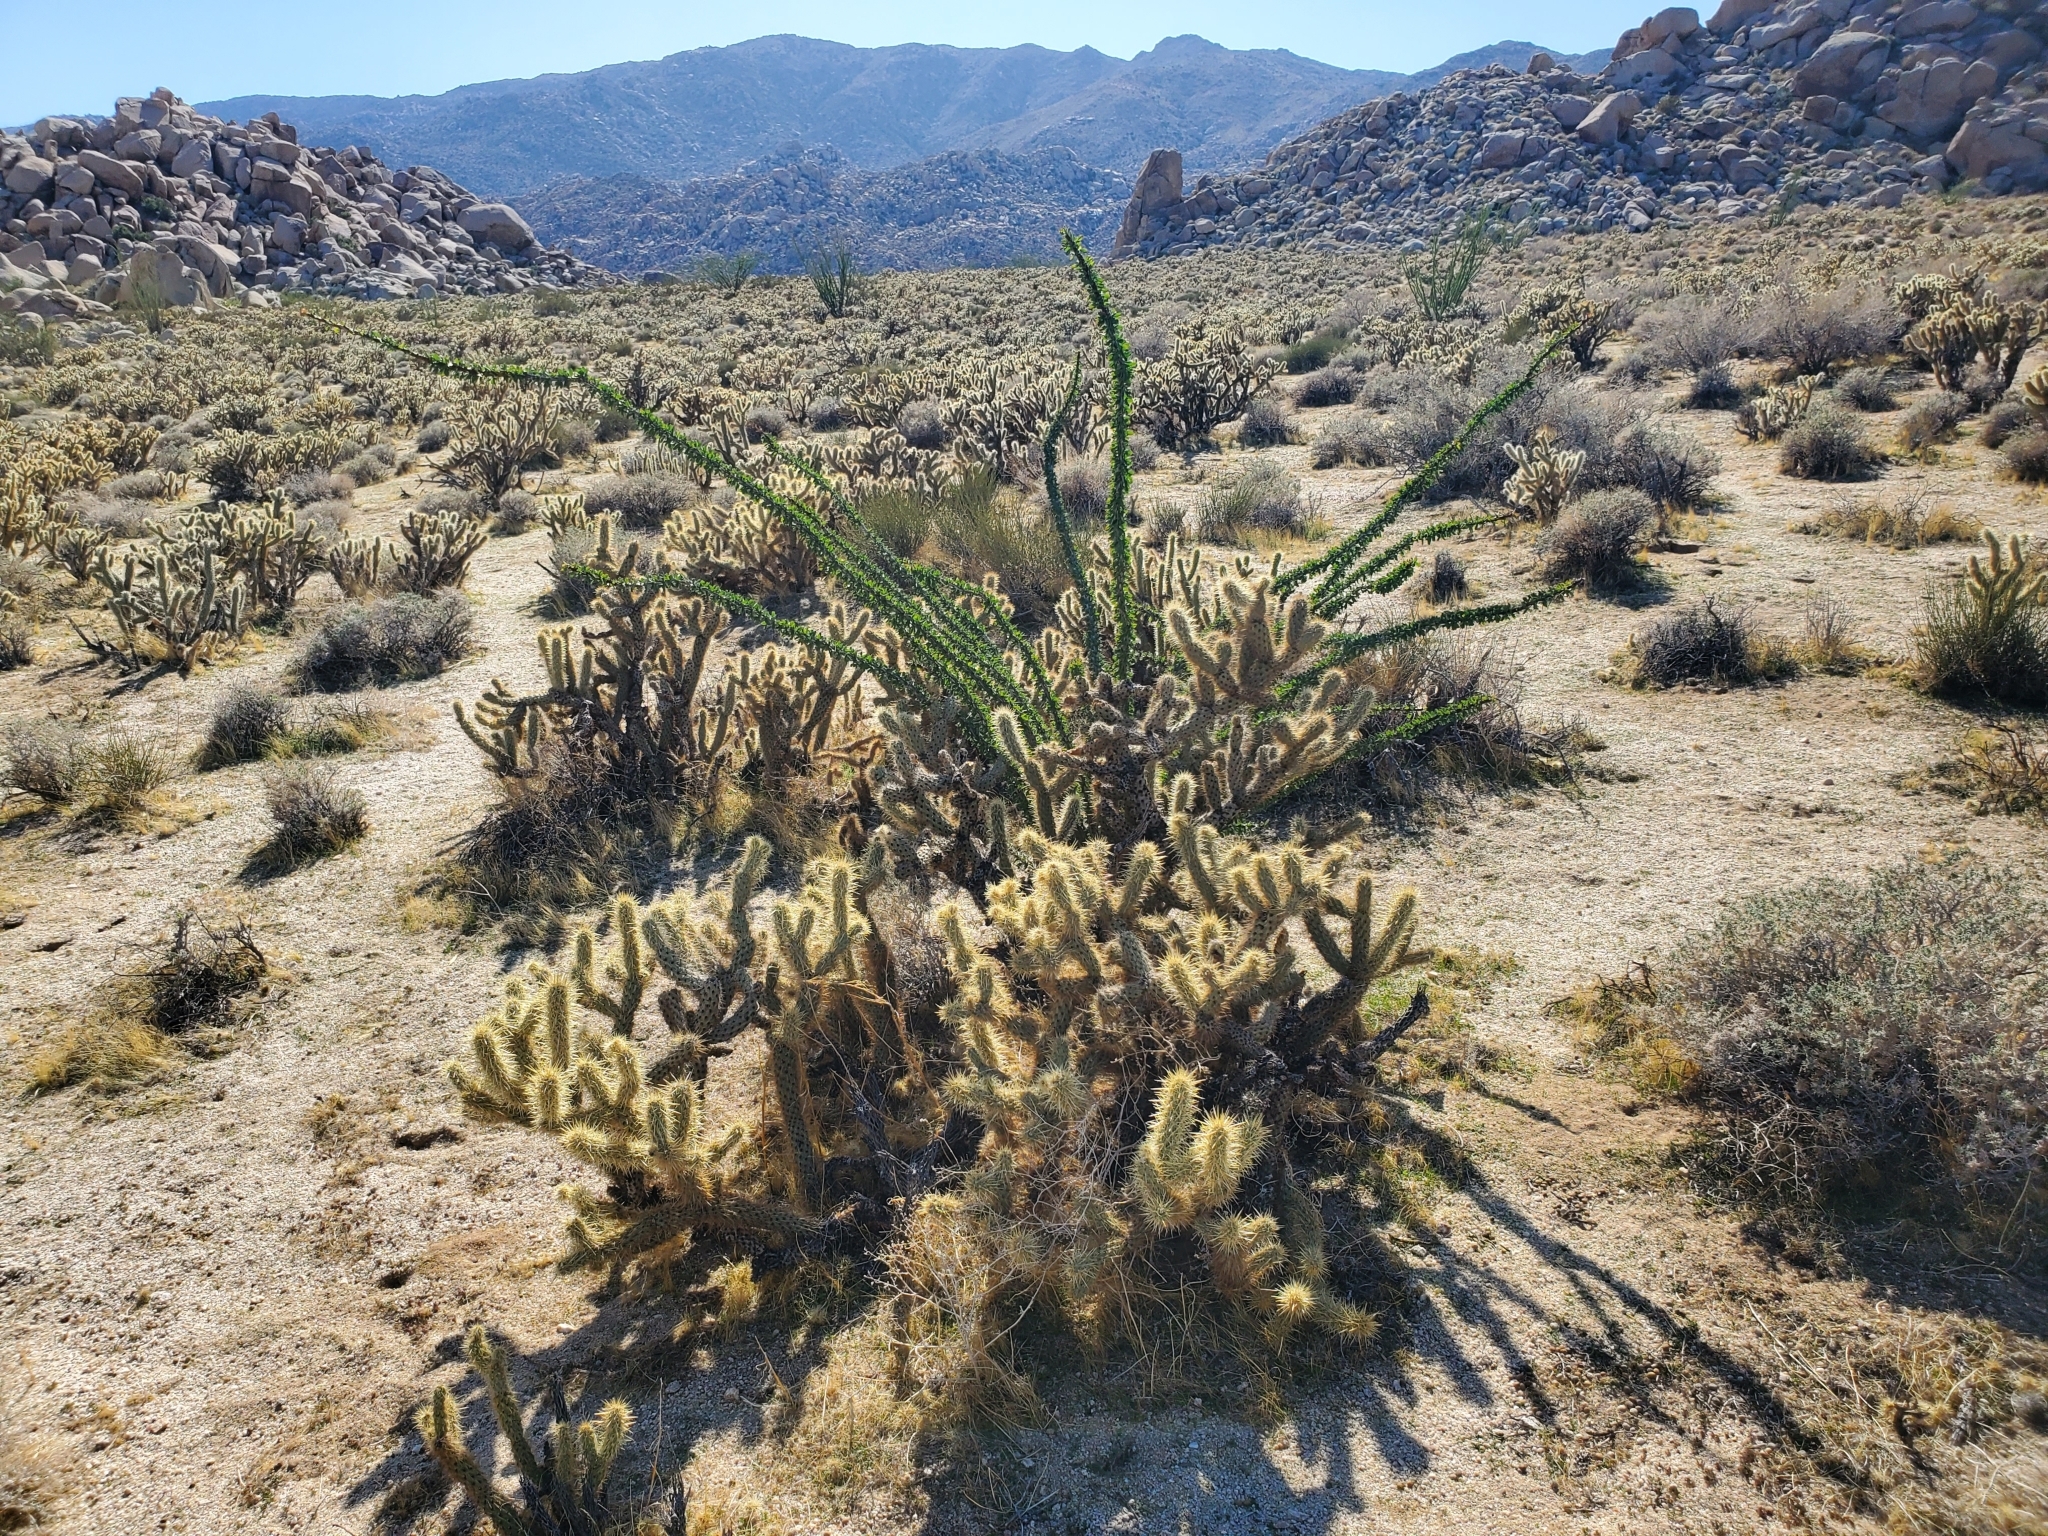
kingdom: Plantae
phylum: Tracheophyta
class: Magnoliopsida
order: Ericales
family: Fouquieriaceae
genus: Fouquieria
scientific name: Fouquieria splendens
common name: Vine-cactus
